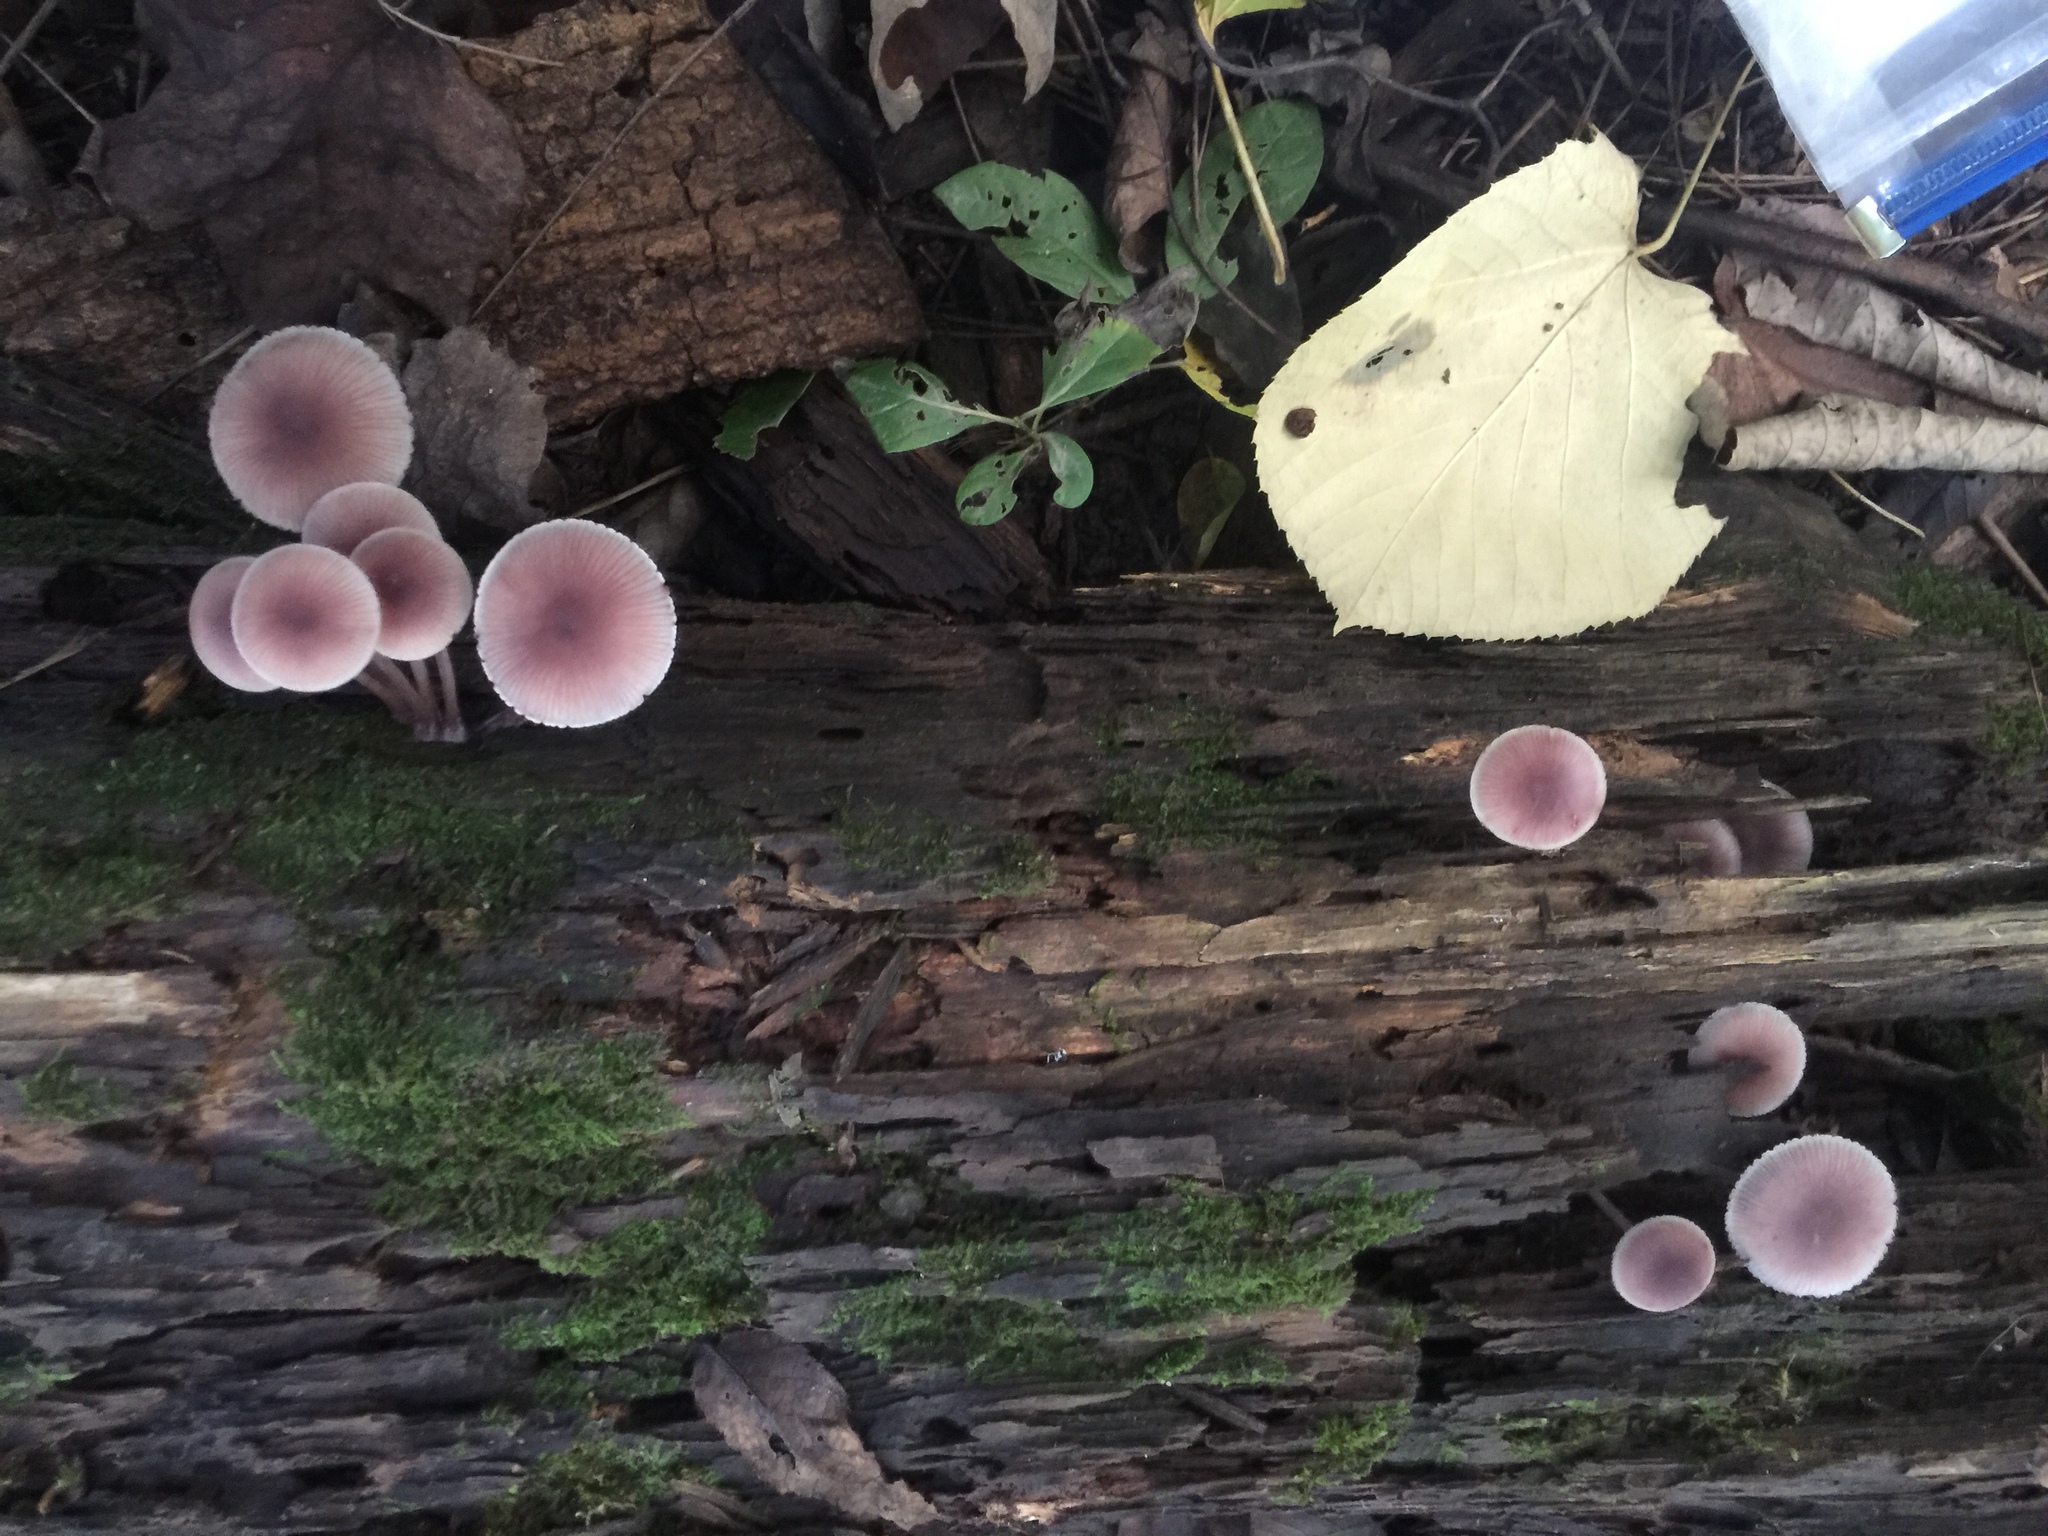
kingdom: Fungi
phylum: Basidiomycota
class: Agaricomycetes
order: Agaricales
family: Mycenaceae
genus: Mycena
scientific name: Mycena haematopus
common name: Burgundydrop bonnet
